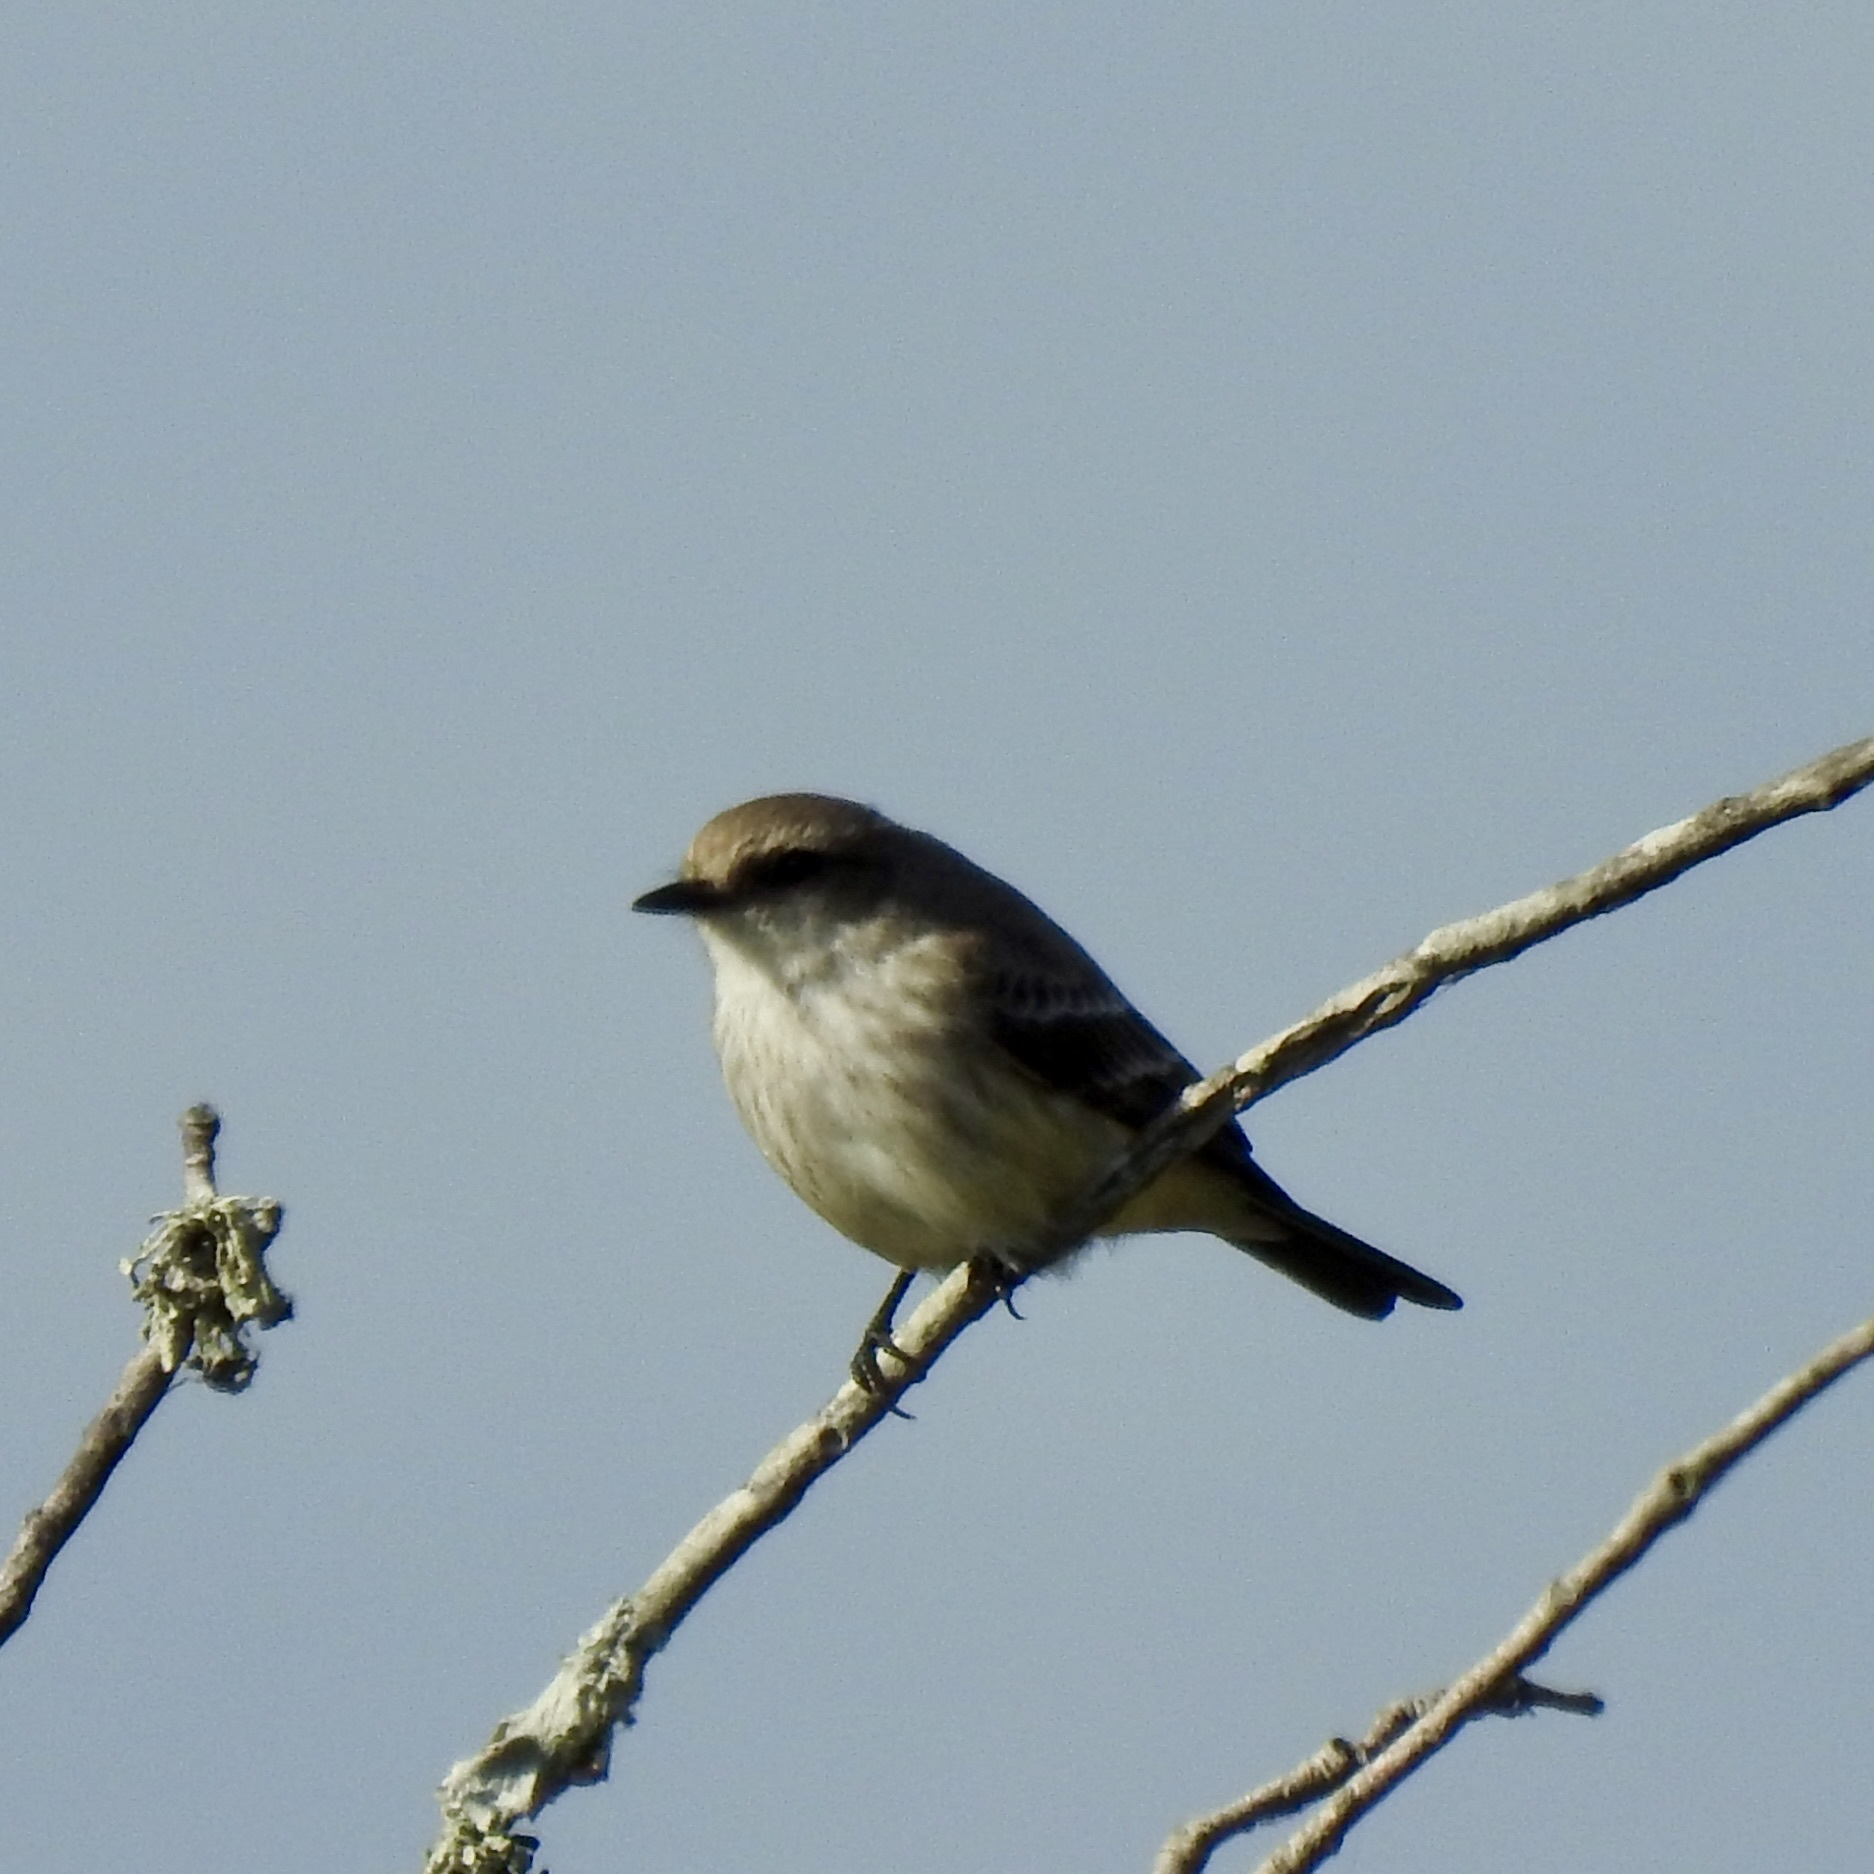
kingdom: Animalia
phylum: Chordata
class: Aves
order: Passeriformes
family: Tyrannidae
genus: Pyrocephalus
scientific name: Pyrocephalus rubinus
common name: Vermilion flycatcher
